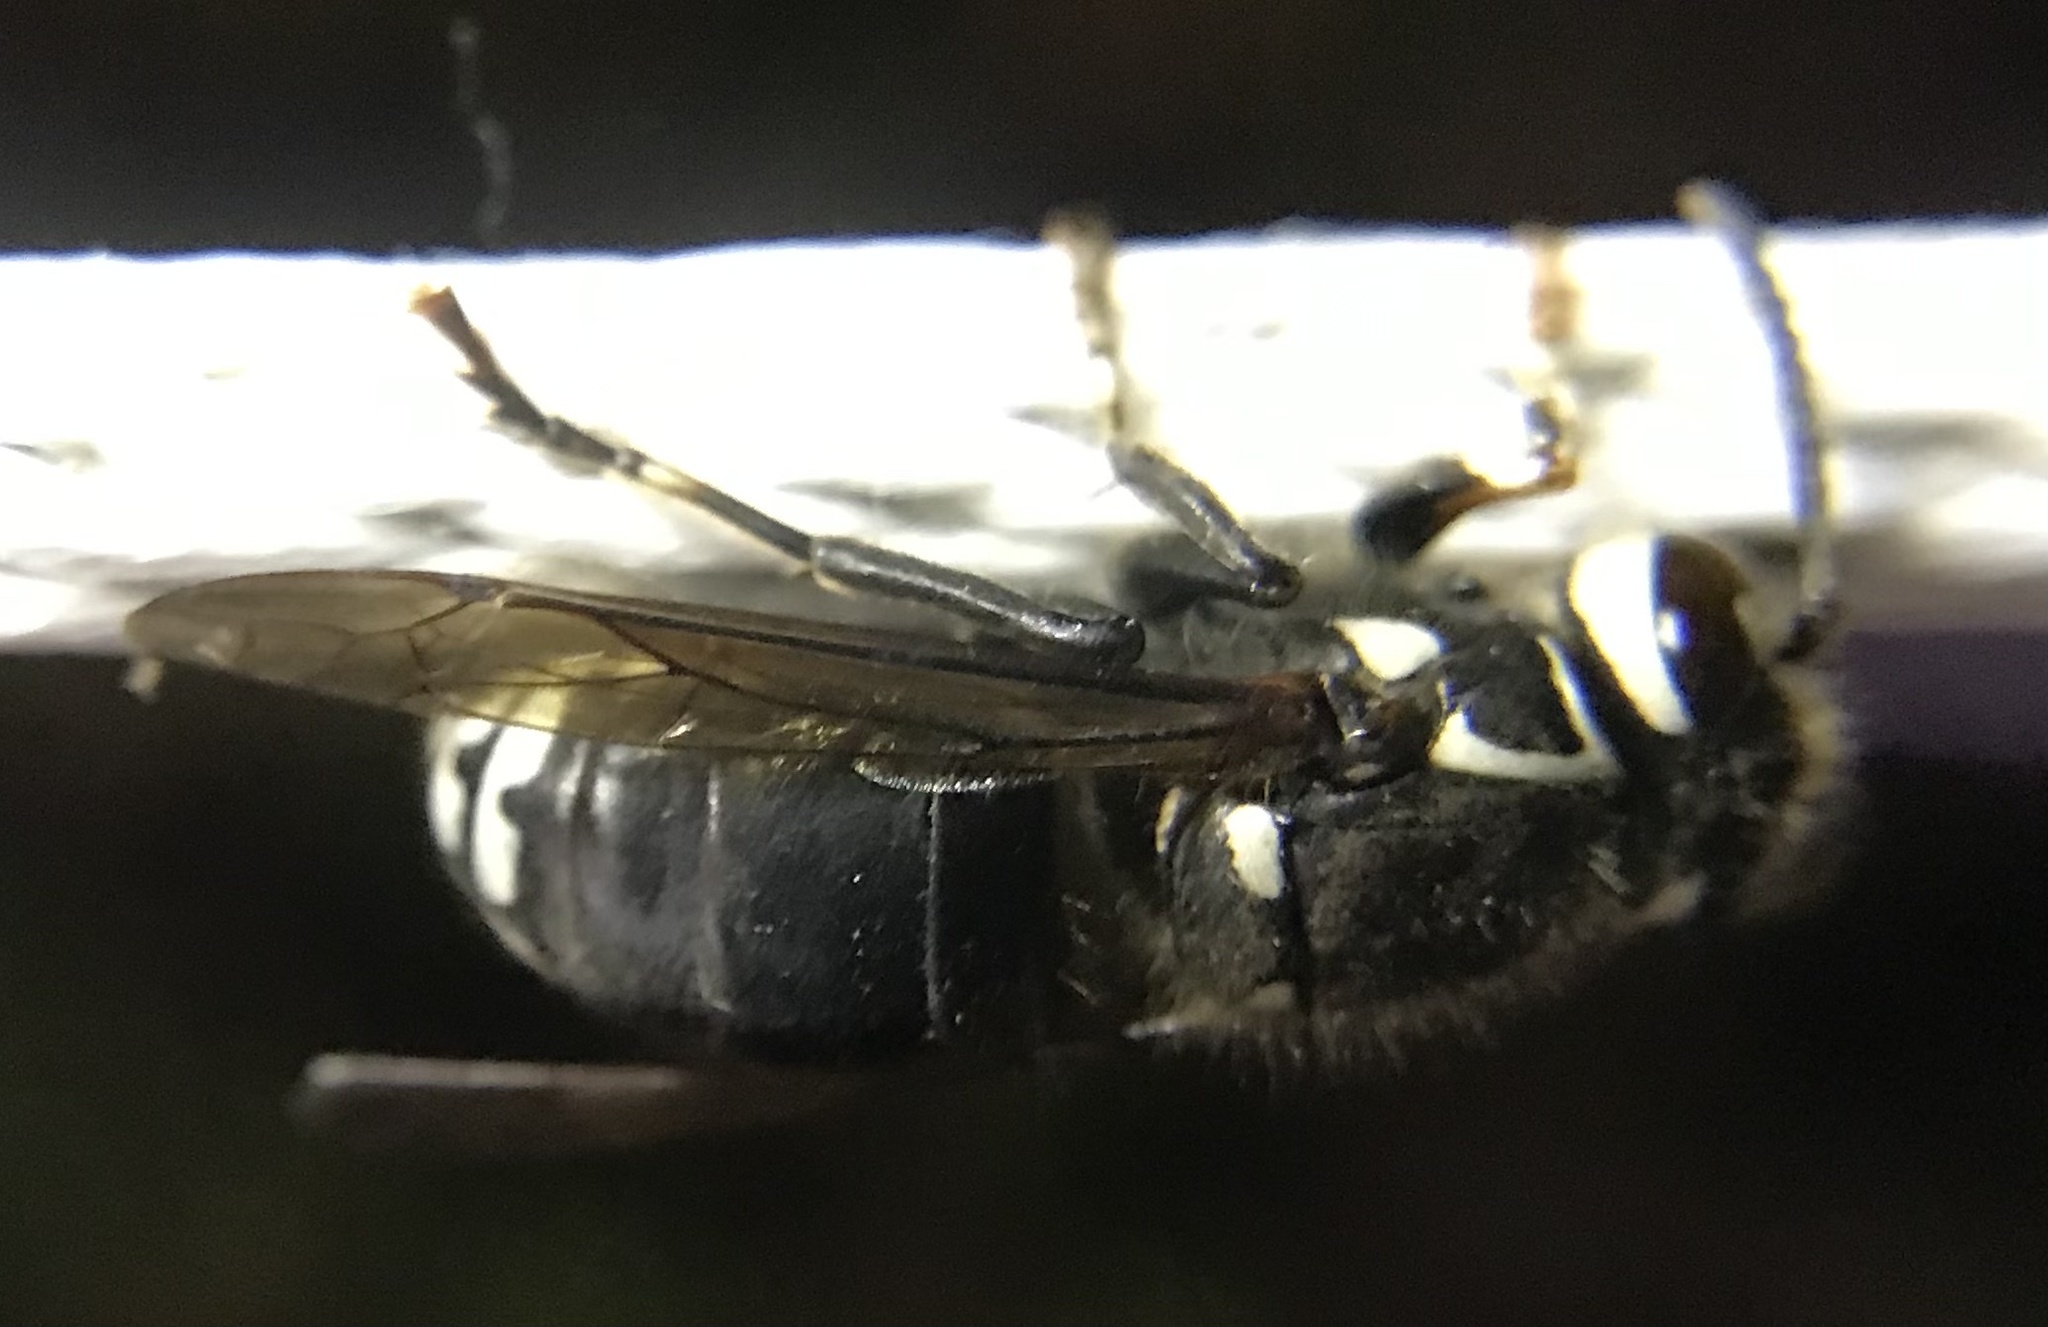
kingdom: Animalia
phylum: Arthropoda
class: Insecta
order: Hymenoptera
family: Vespidae
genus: Dolichovespula
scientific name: Dolichovespula maculata
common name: Bald-faced hornet
